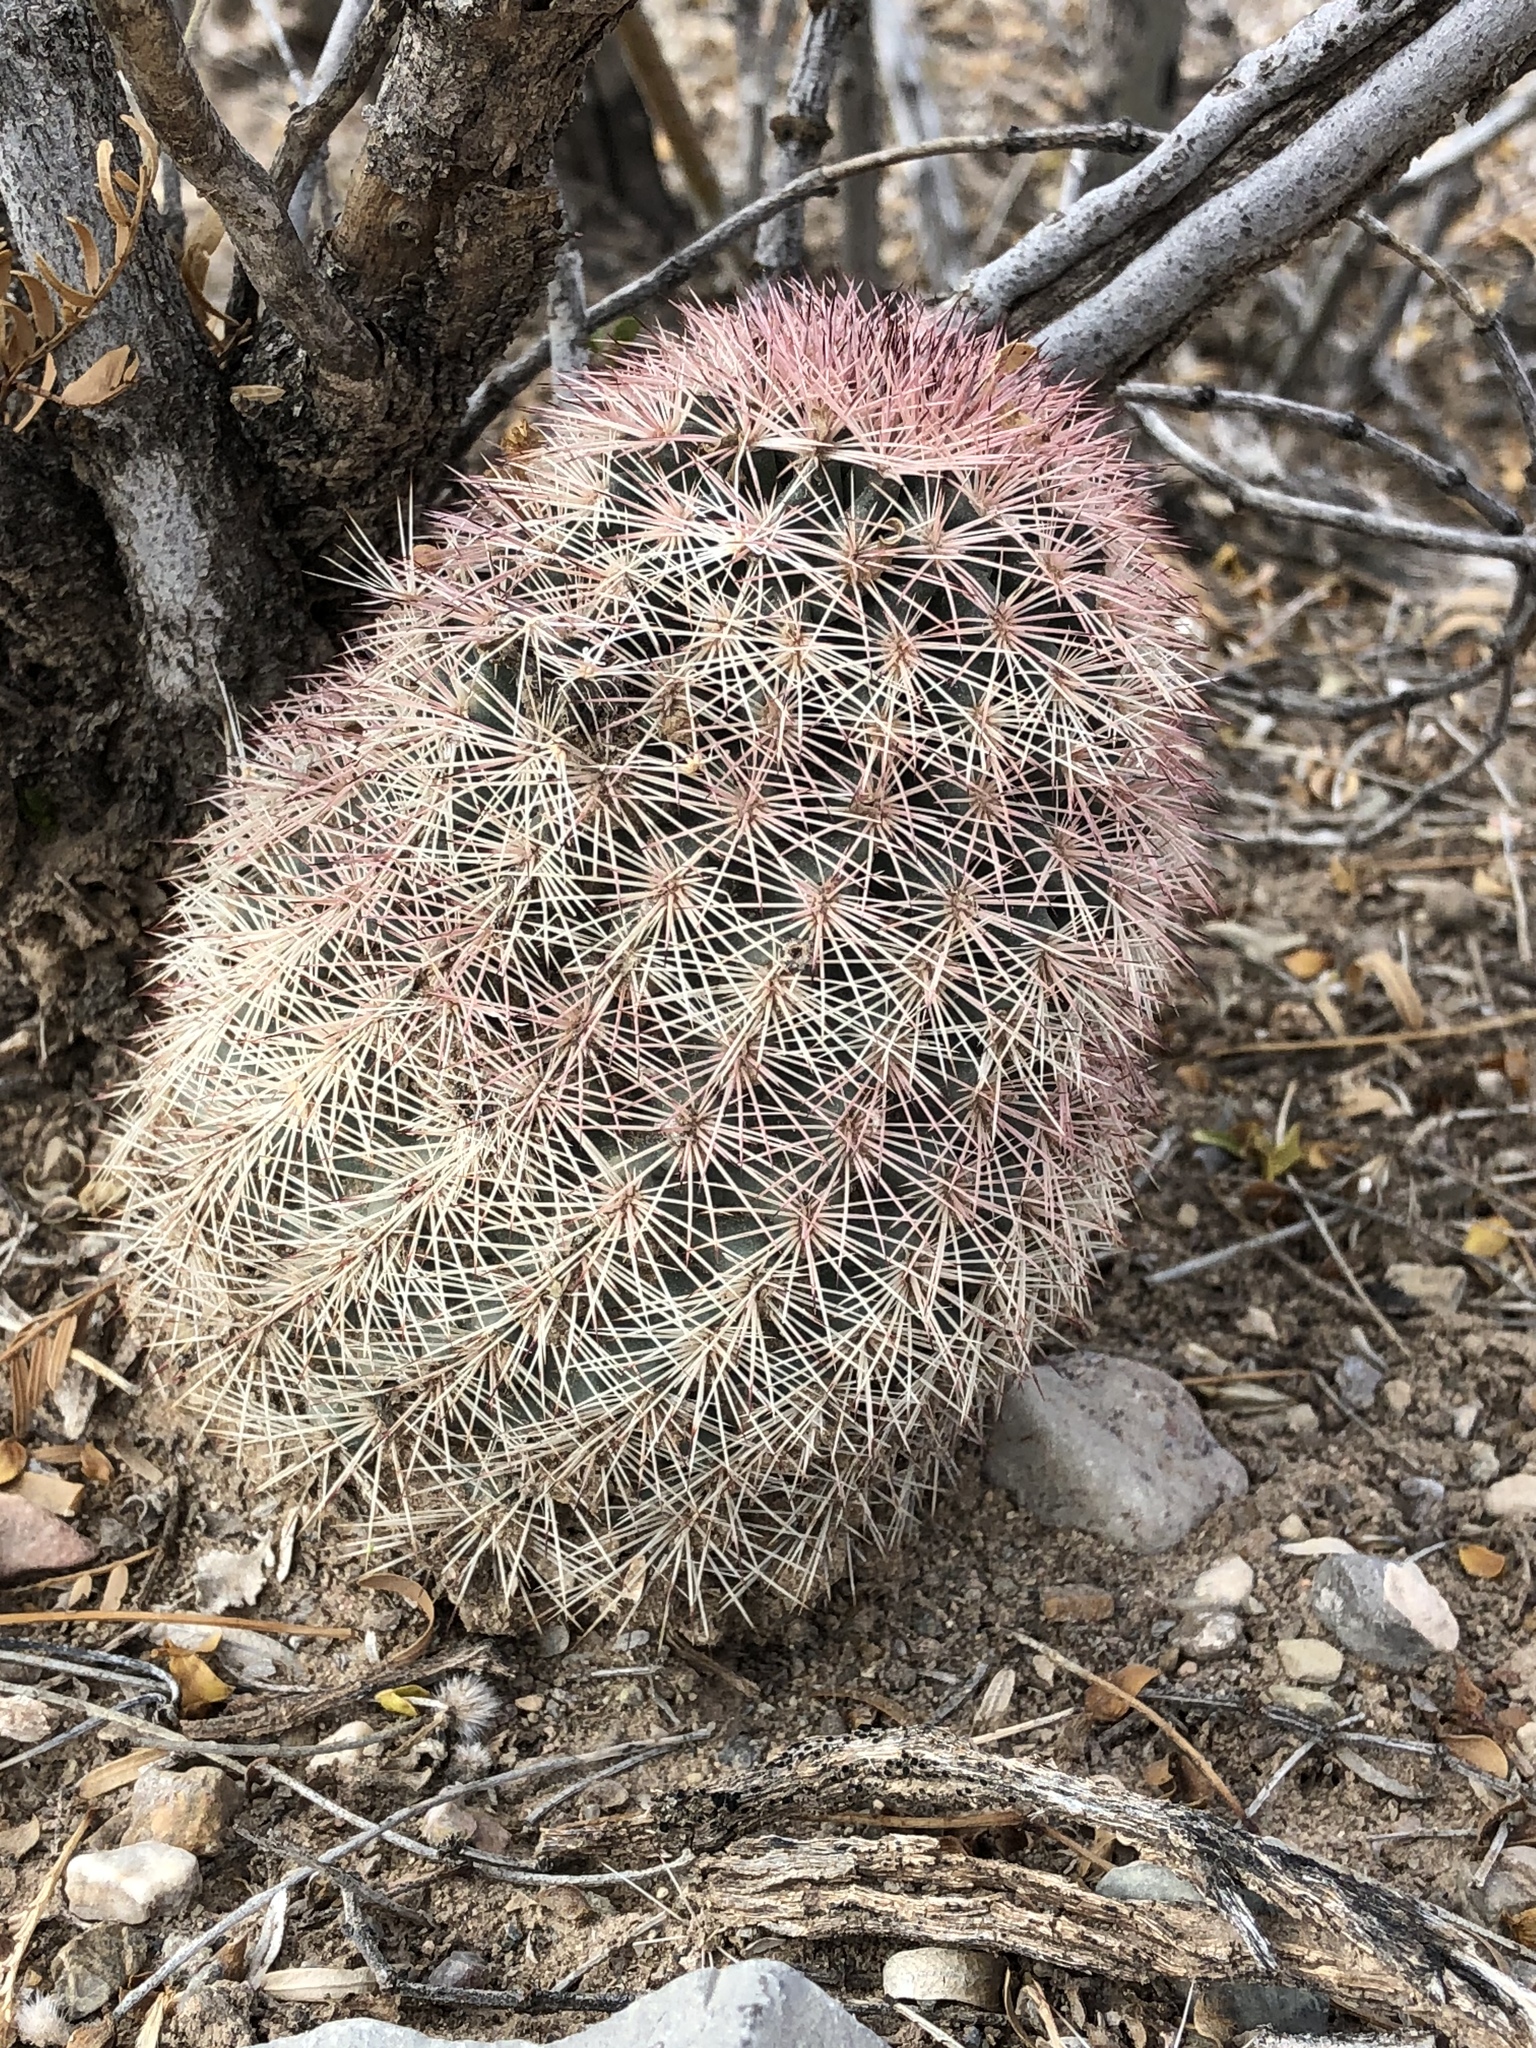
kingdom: Plantae
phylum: Tracheophyta
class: Magnoliopsida
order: Caryophyllales
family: Cactaceae
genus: Echinocereus
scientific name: Echinocereus dasyacanthus
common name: Spiny hedgehog cactus
